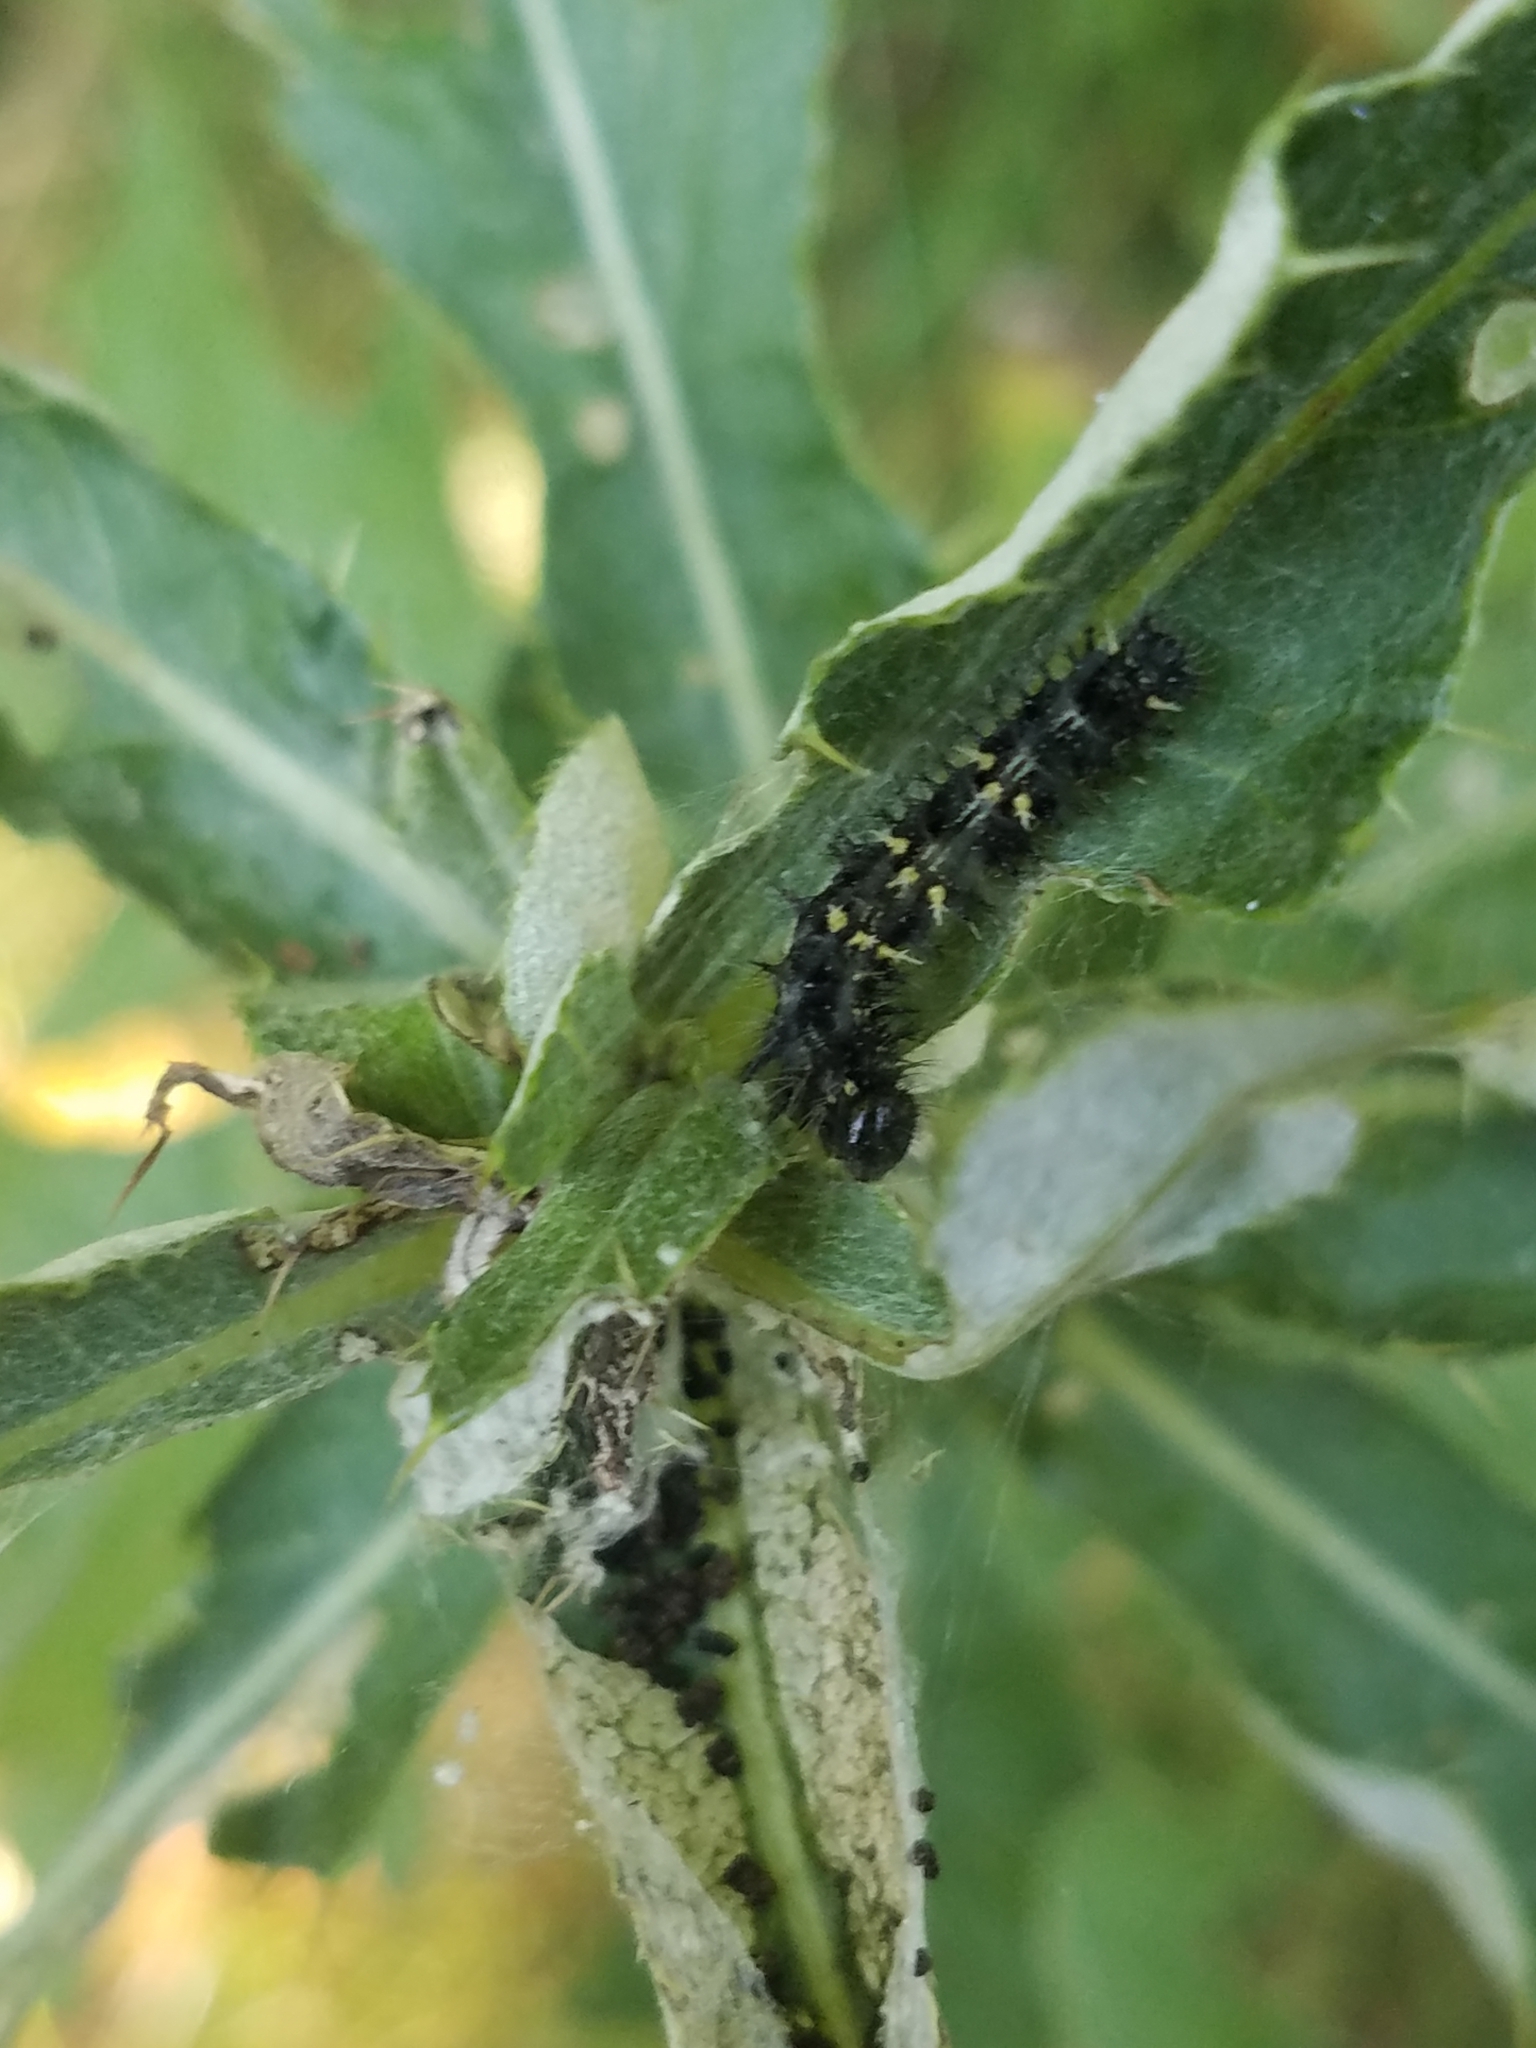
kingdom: Animalia
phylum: Arthropoda
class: Insecta
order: Lepidoptera
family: Nymphalidae
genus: Vanessa
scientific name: Vanessa cardui
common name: Painted lady
